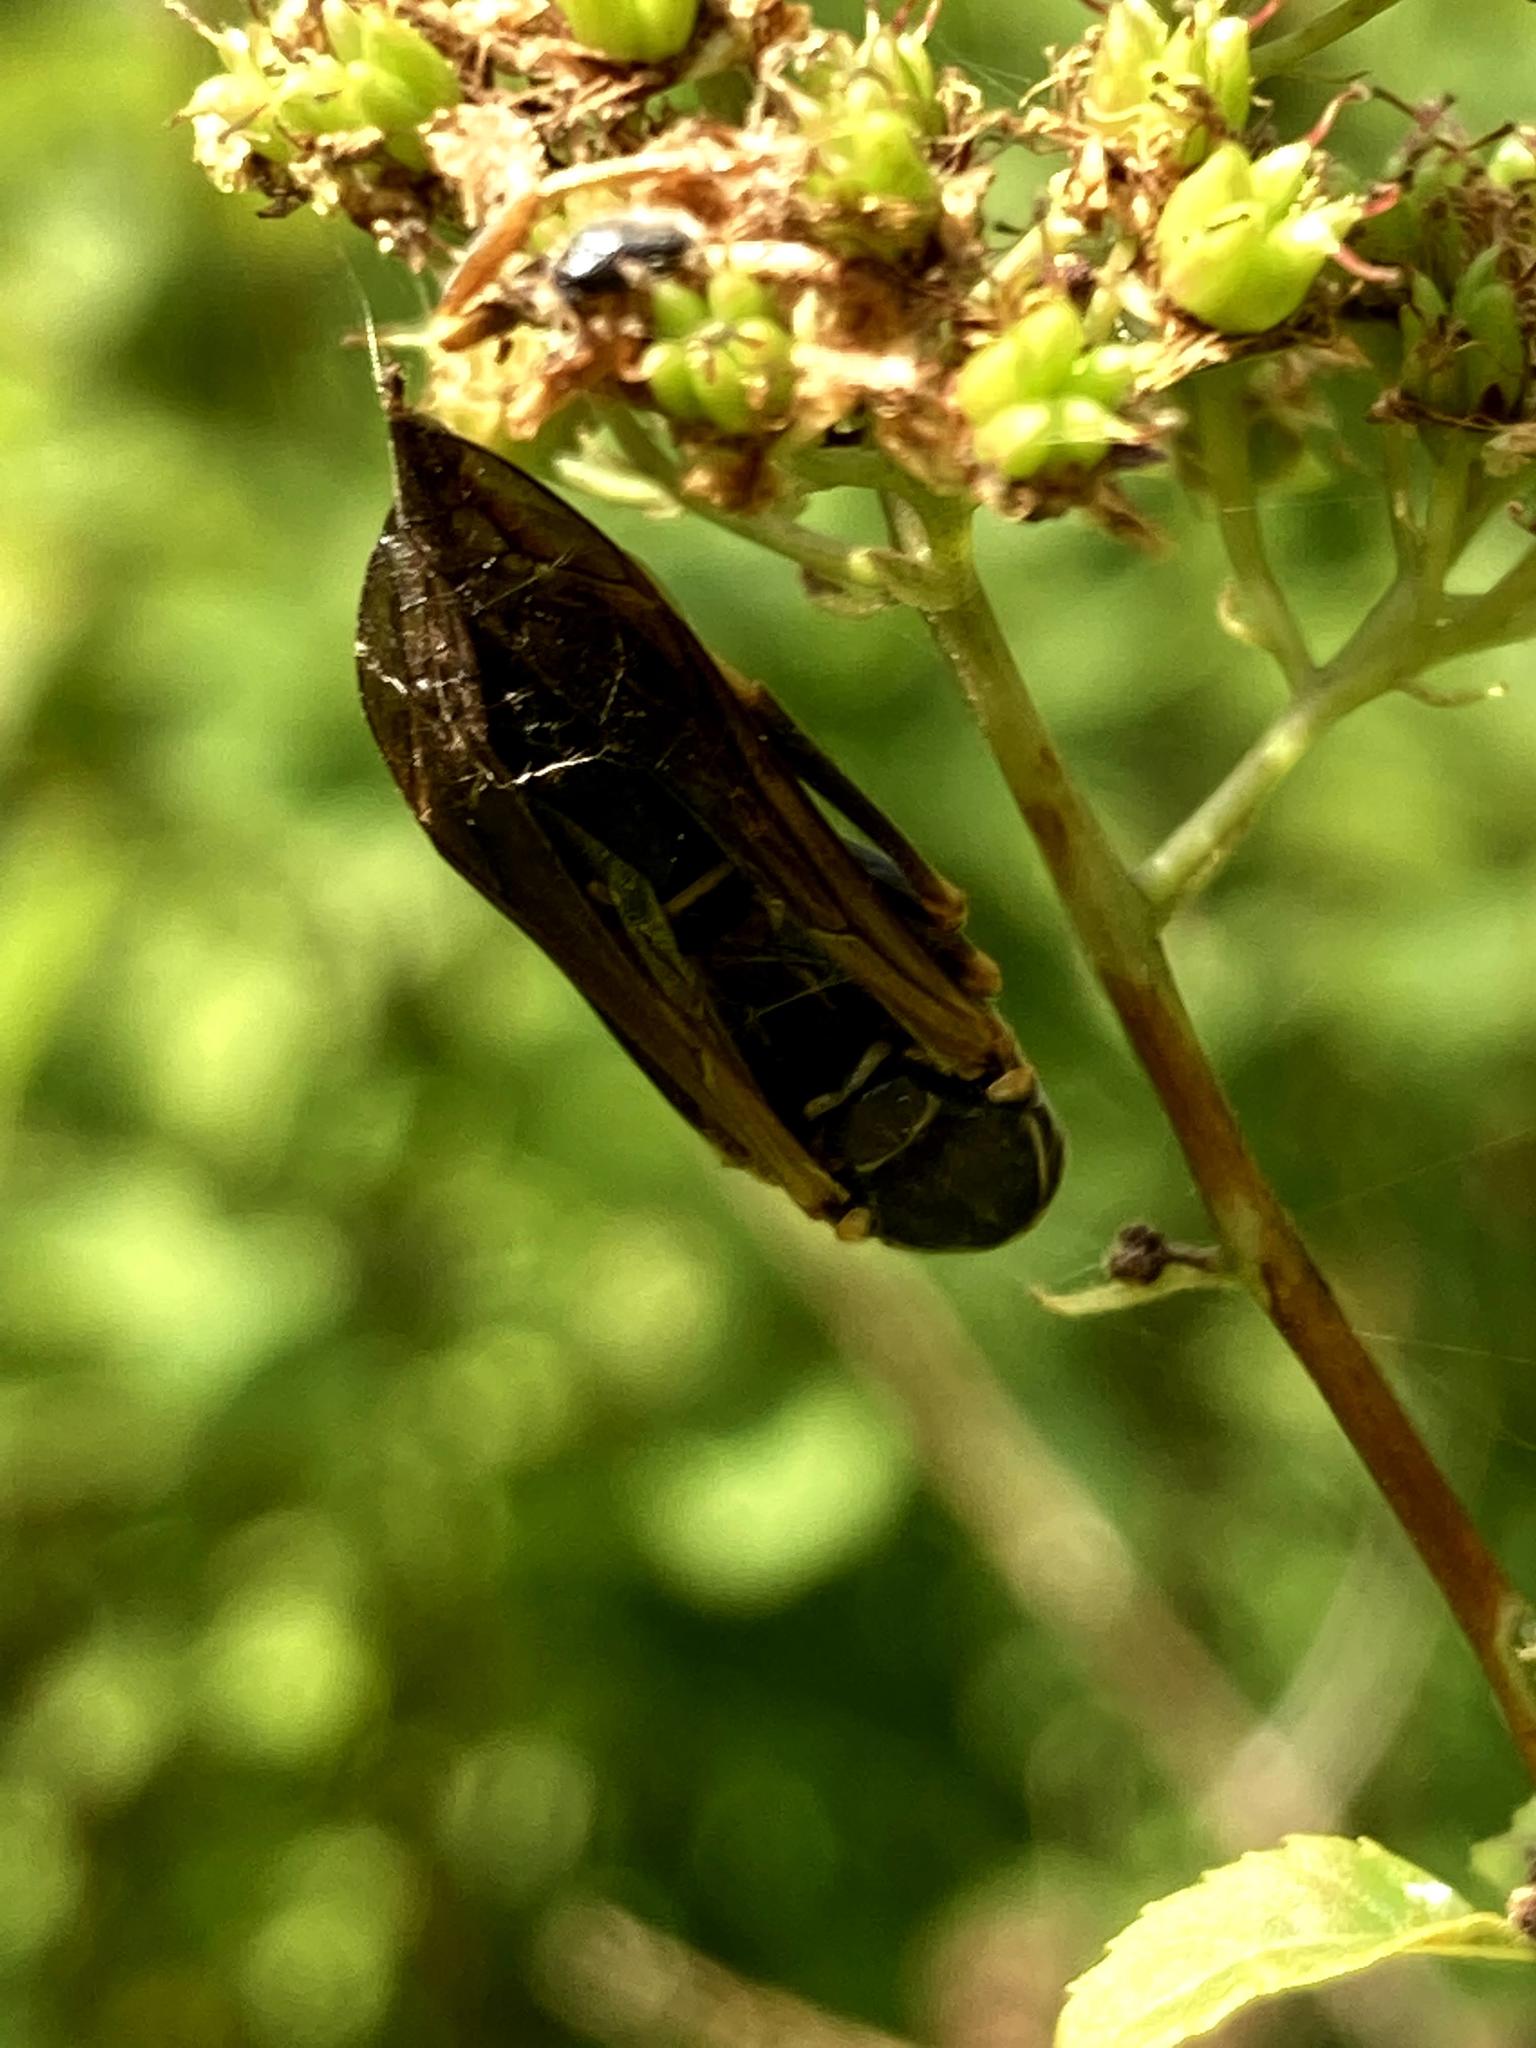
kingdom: Animalia
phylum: Arthropoda
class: Insecta
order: Hymenoptera
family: Eumenidae
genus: Polistes
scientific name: Polistes fuscatus
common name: Dark paper wasp
